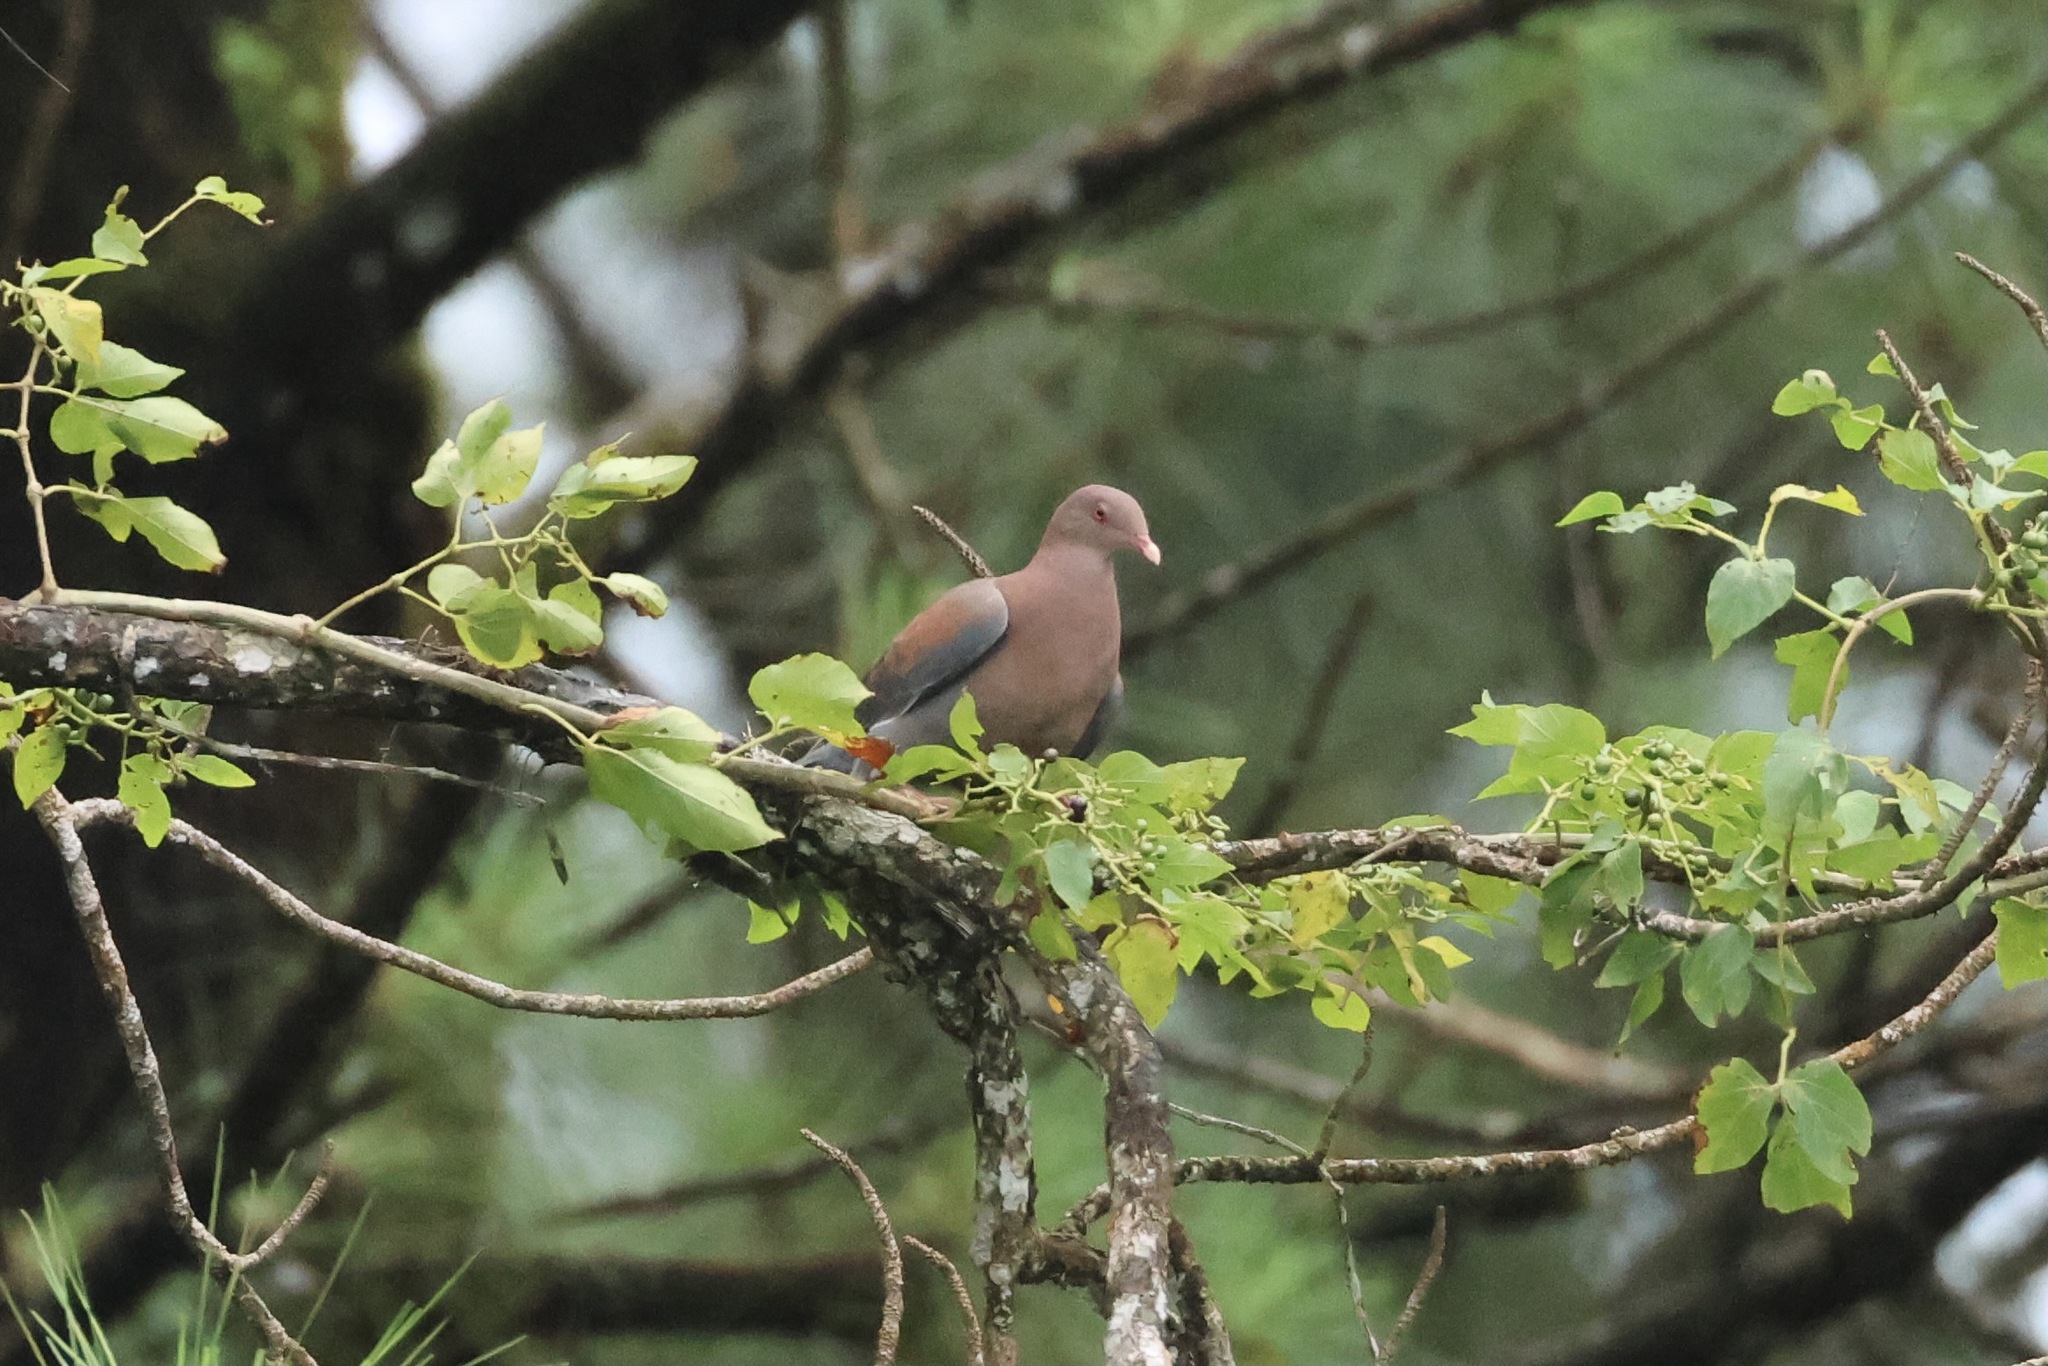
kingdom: Animalia
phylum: Chordata
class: Aves
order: Columbiformes
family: Columbidae
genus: Patagioenas
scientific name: Patagioenas flavirostris
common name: Red-billed pigeon
